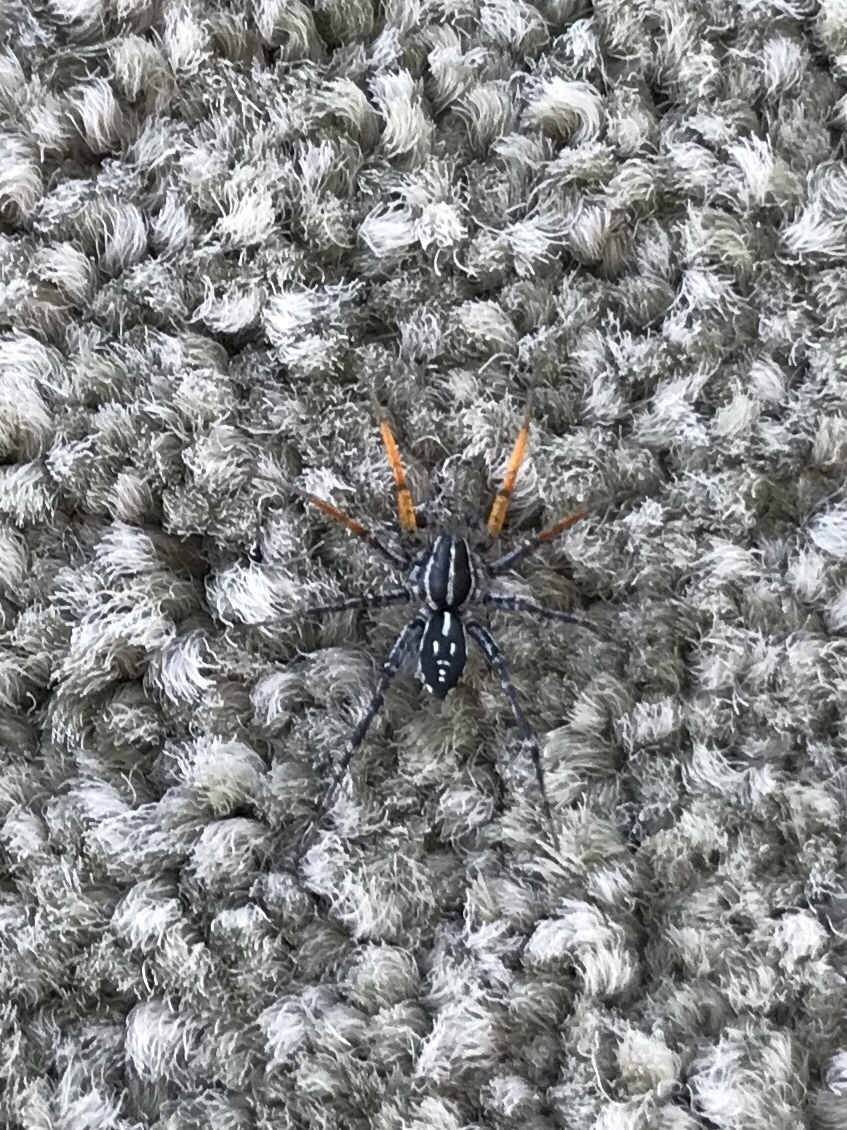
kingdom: Animalia
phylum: Arthropoda
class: Arachnida
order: Araneae
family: Corinnidae
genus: Nyssus
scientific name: Nyssus coloripes
